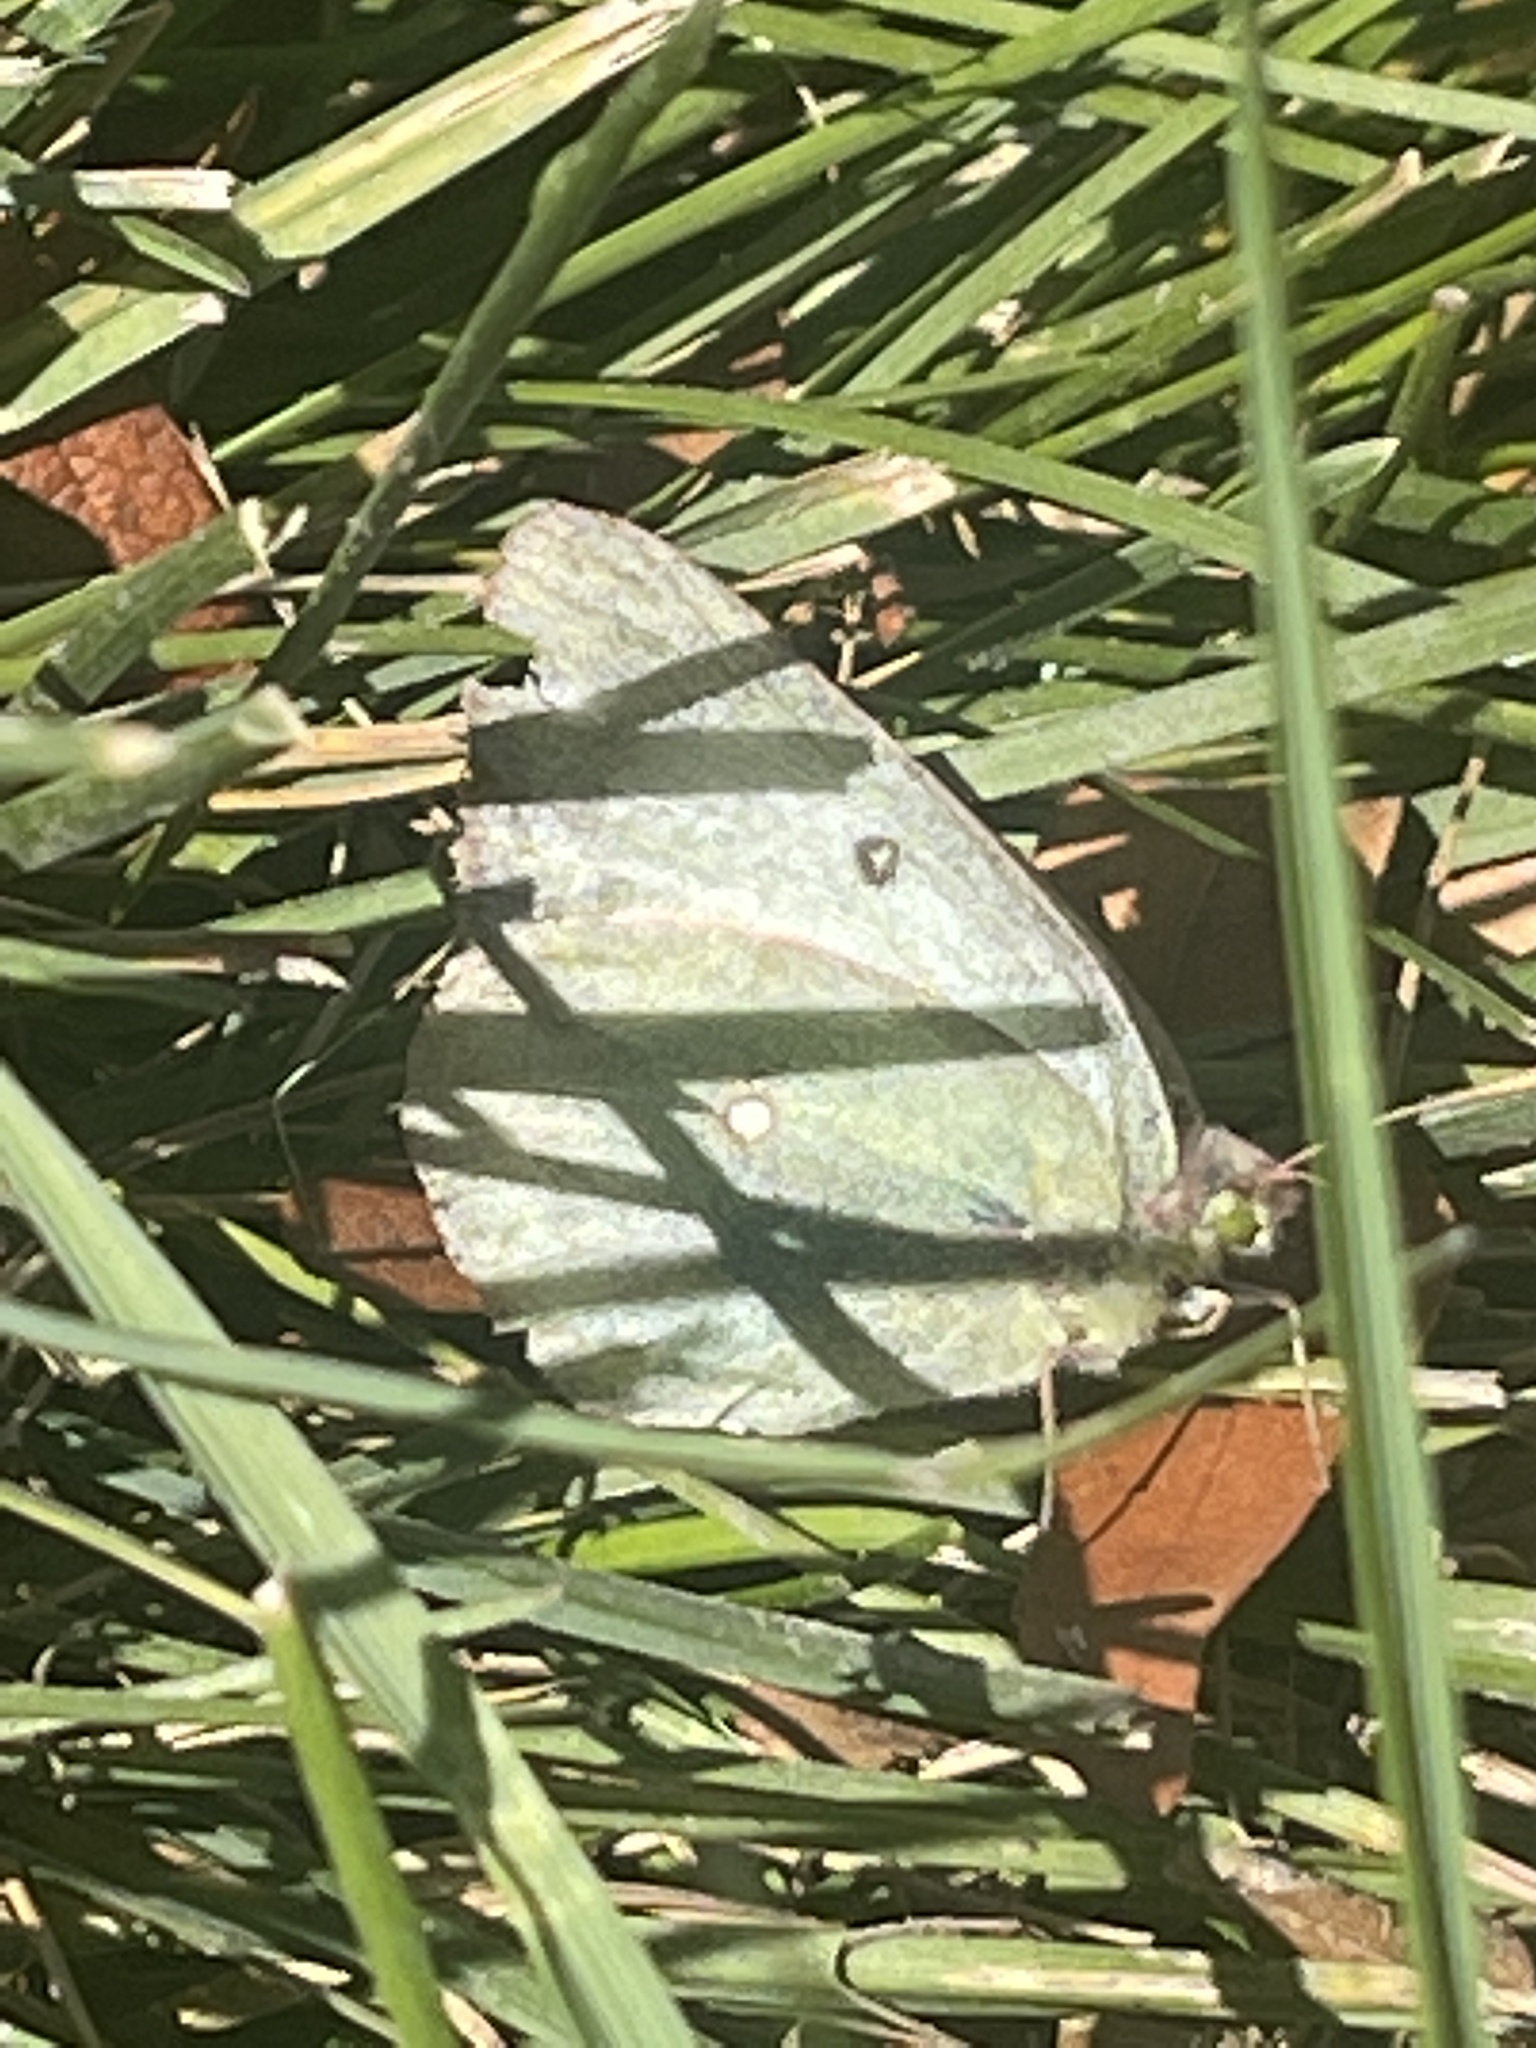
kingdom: Animalia
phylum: Arthropoda
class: Insecta
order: Lepidoptera
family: Pieridae
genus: Colias
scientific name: Colias philodice
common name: Clouded sulphur
